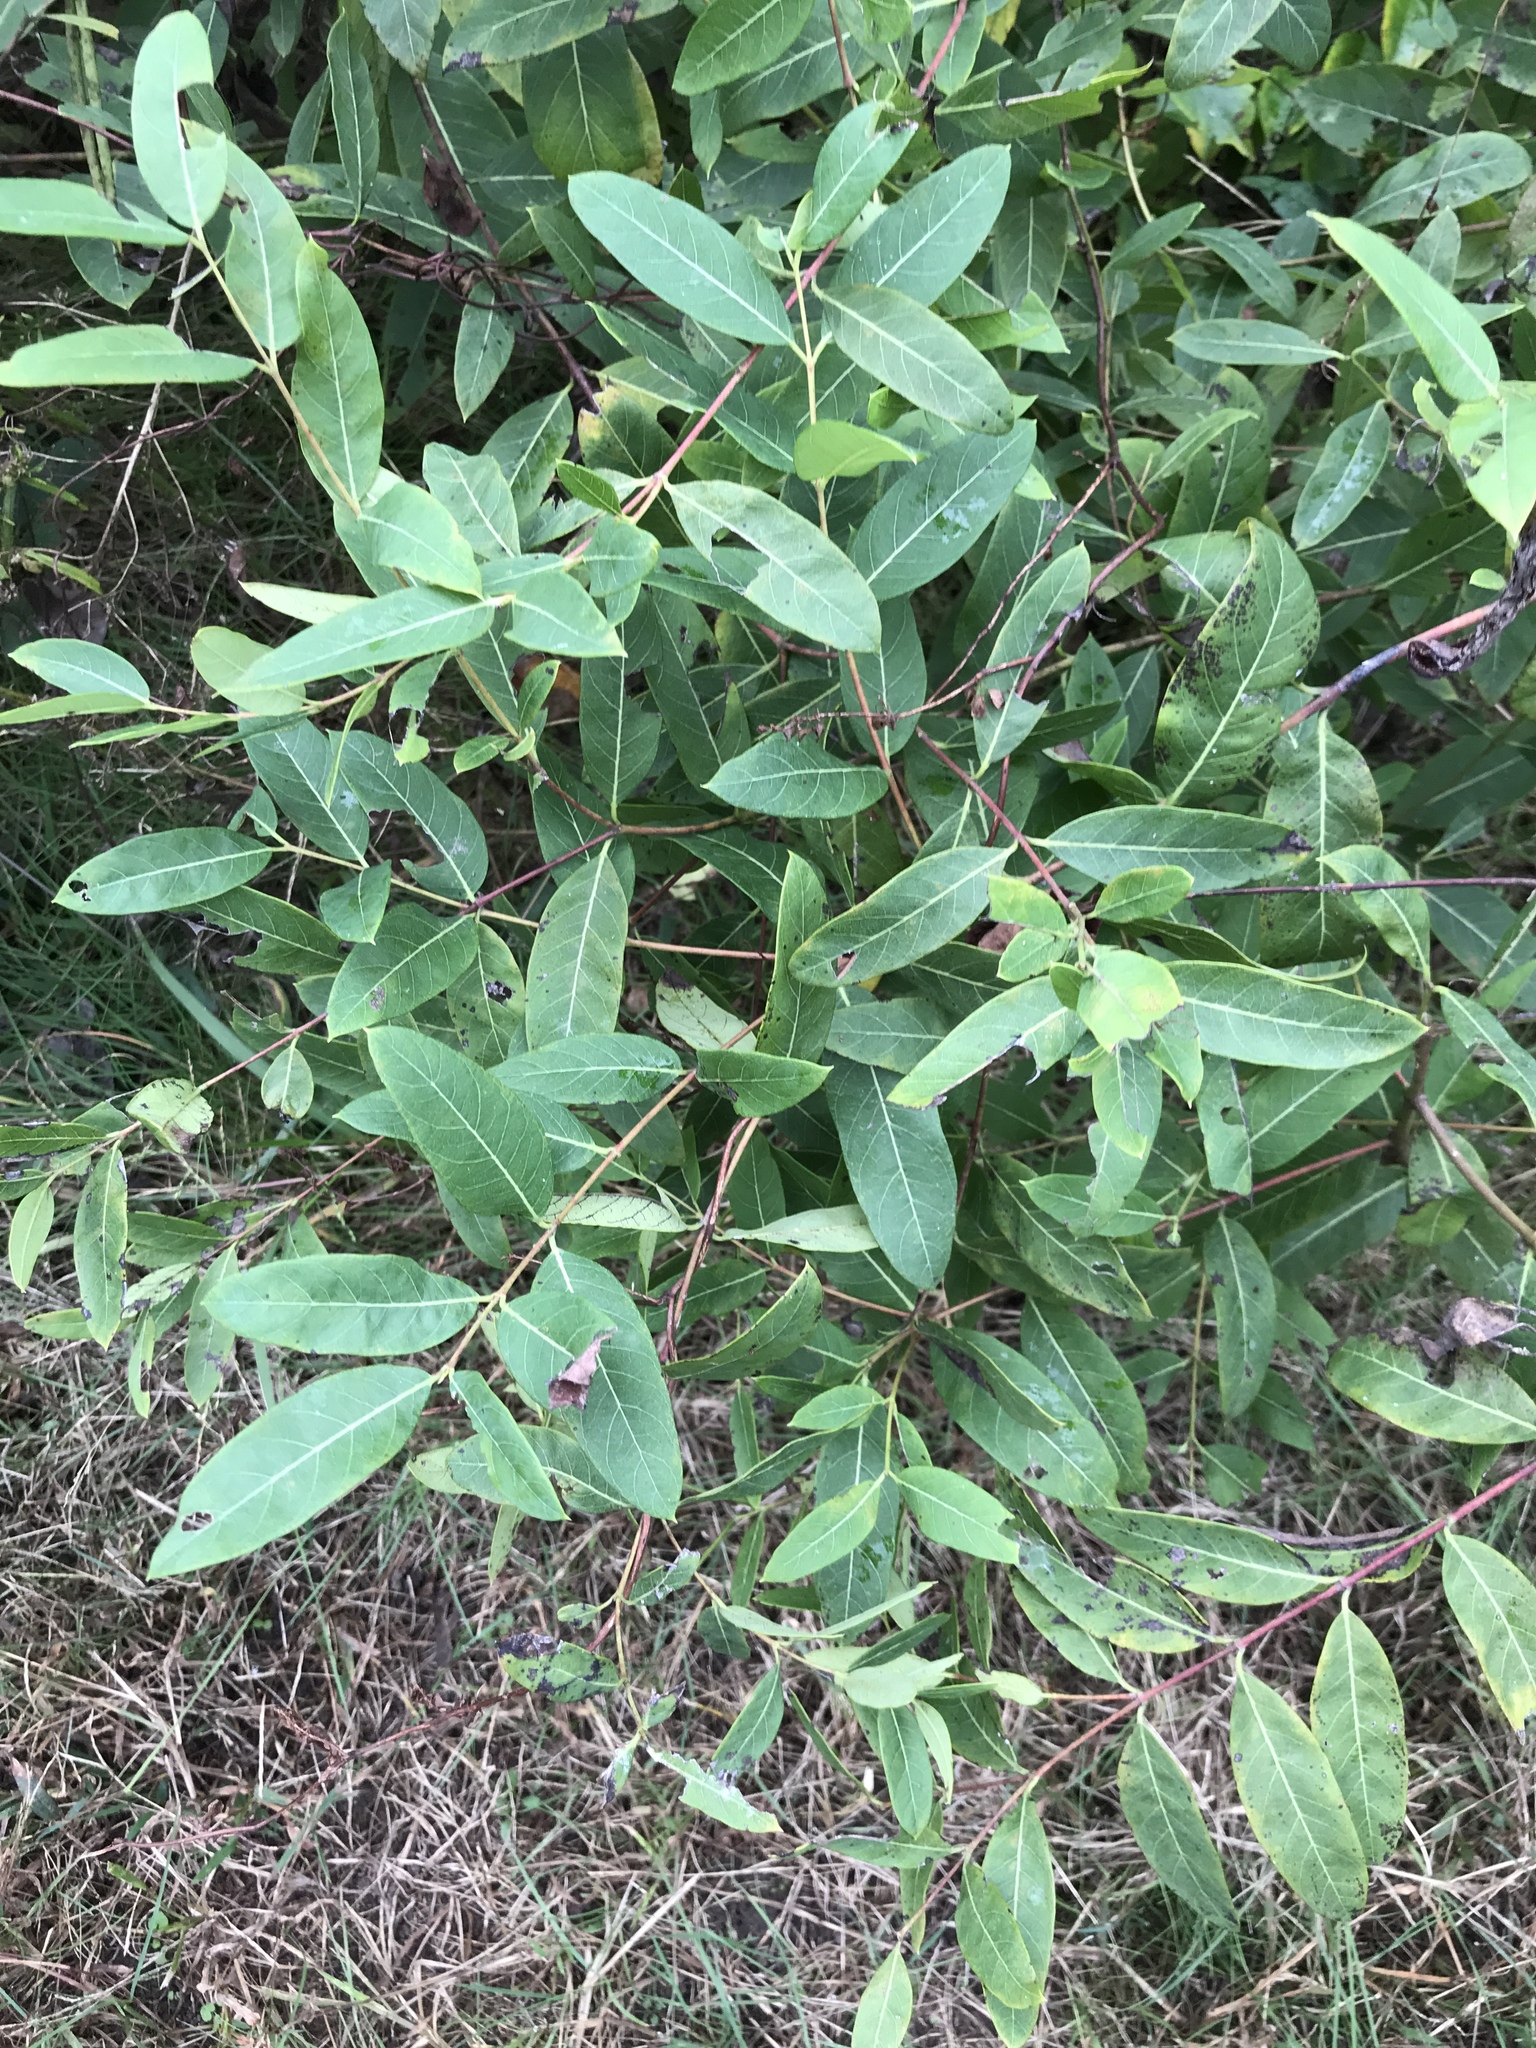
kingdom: Plantae
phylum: Tracheophyta
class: Magnoliopsida
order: Gentianales
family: Apocynaceae
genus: Apocynum
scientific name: Apocynum cannabinum
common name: Hemp dogbane
